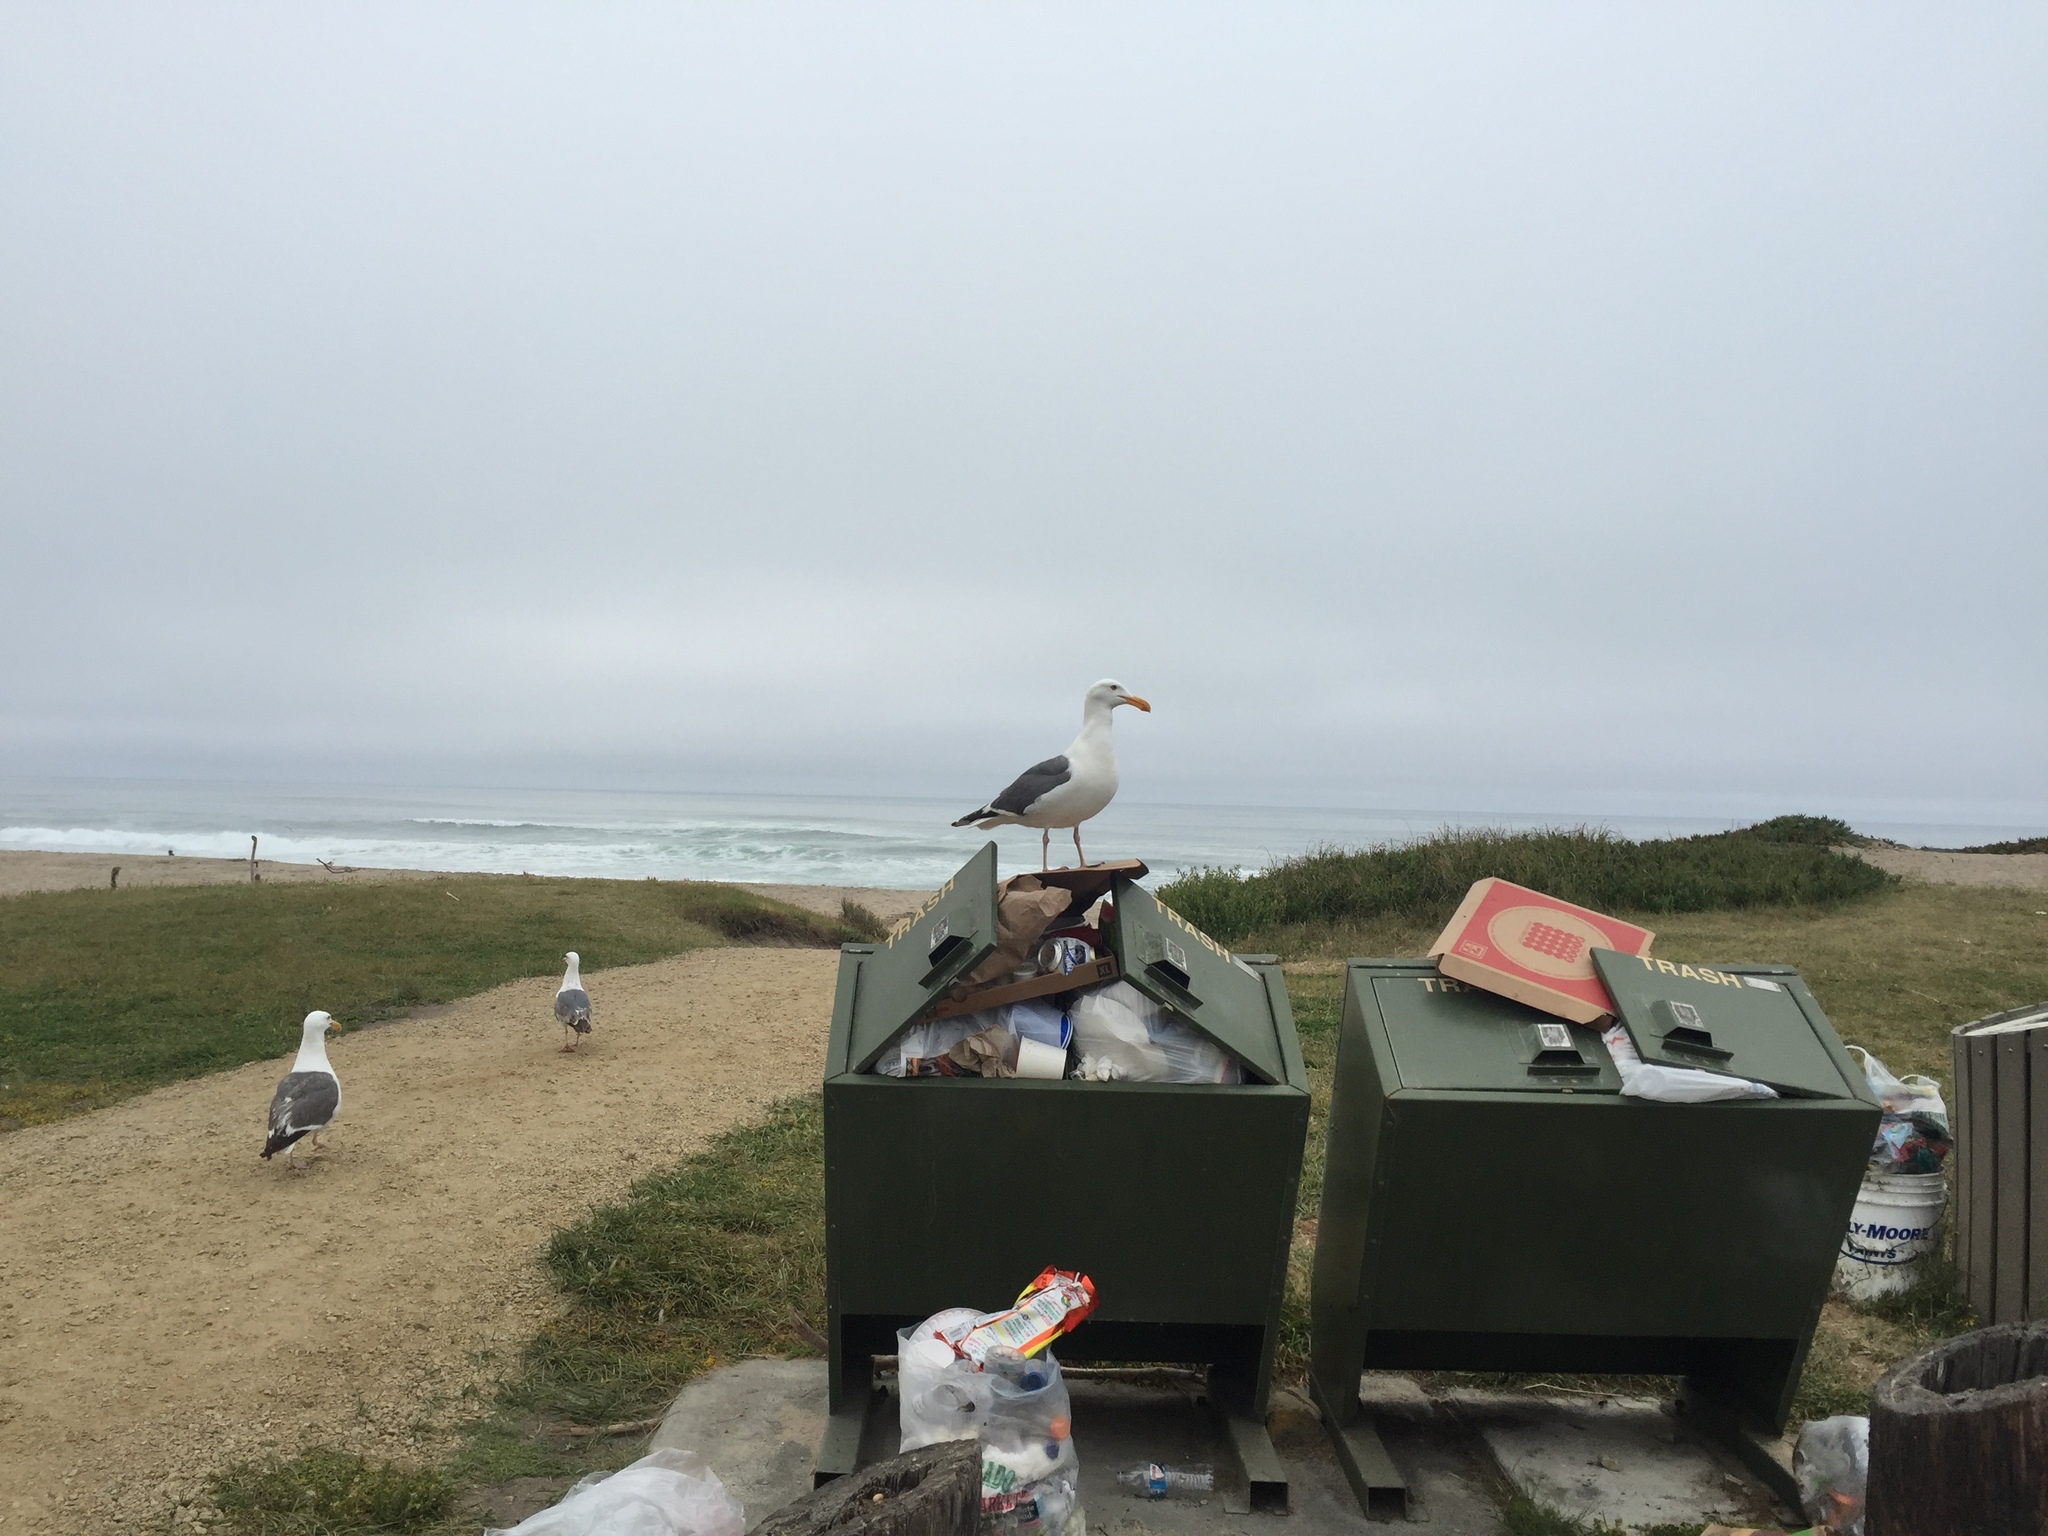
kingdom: Animalia
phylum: Chordata
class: Aves
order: Charadriiformes
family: Laridae
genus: Larus
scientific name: Larus occidentalis
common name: Western gull
